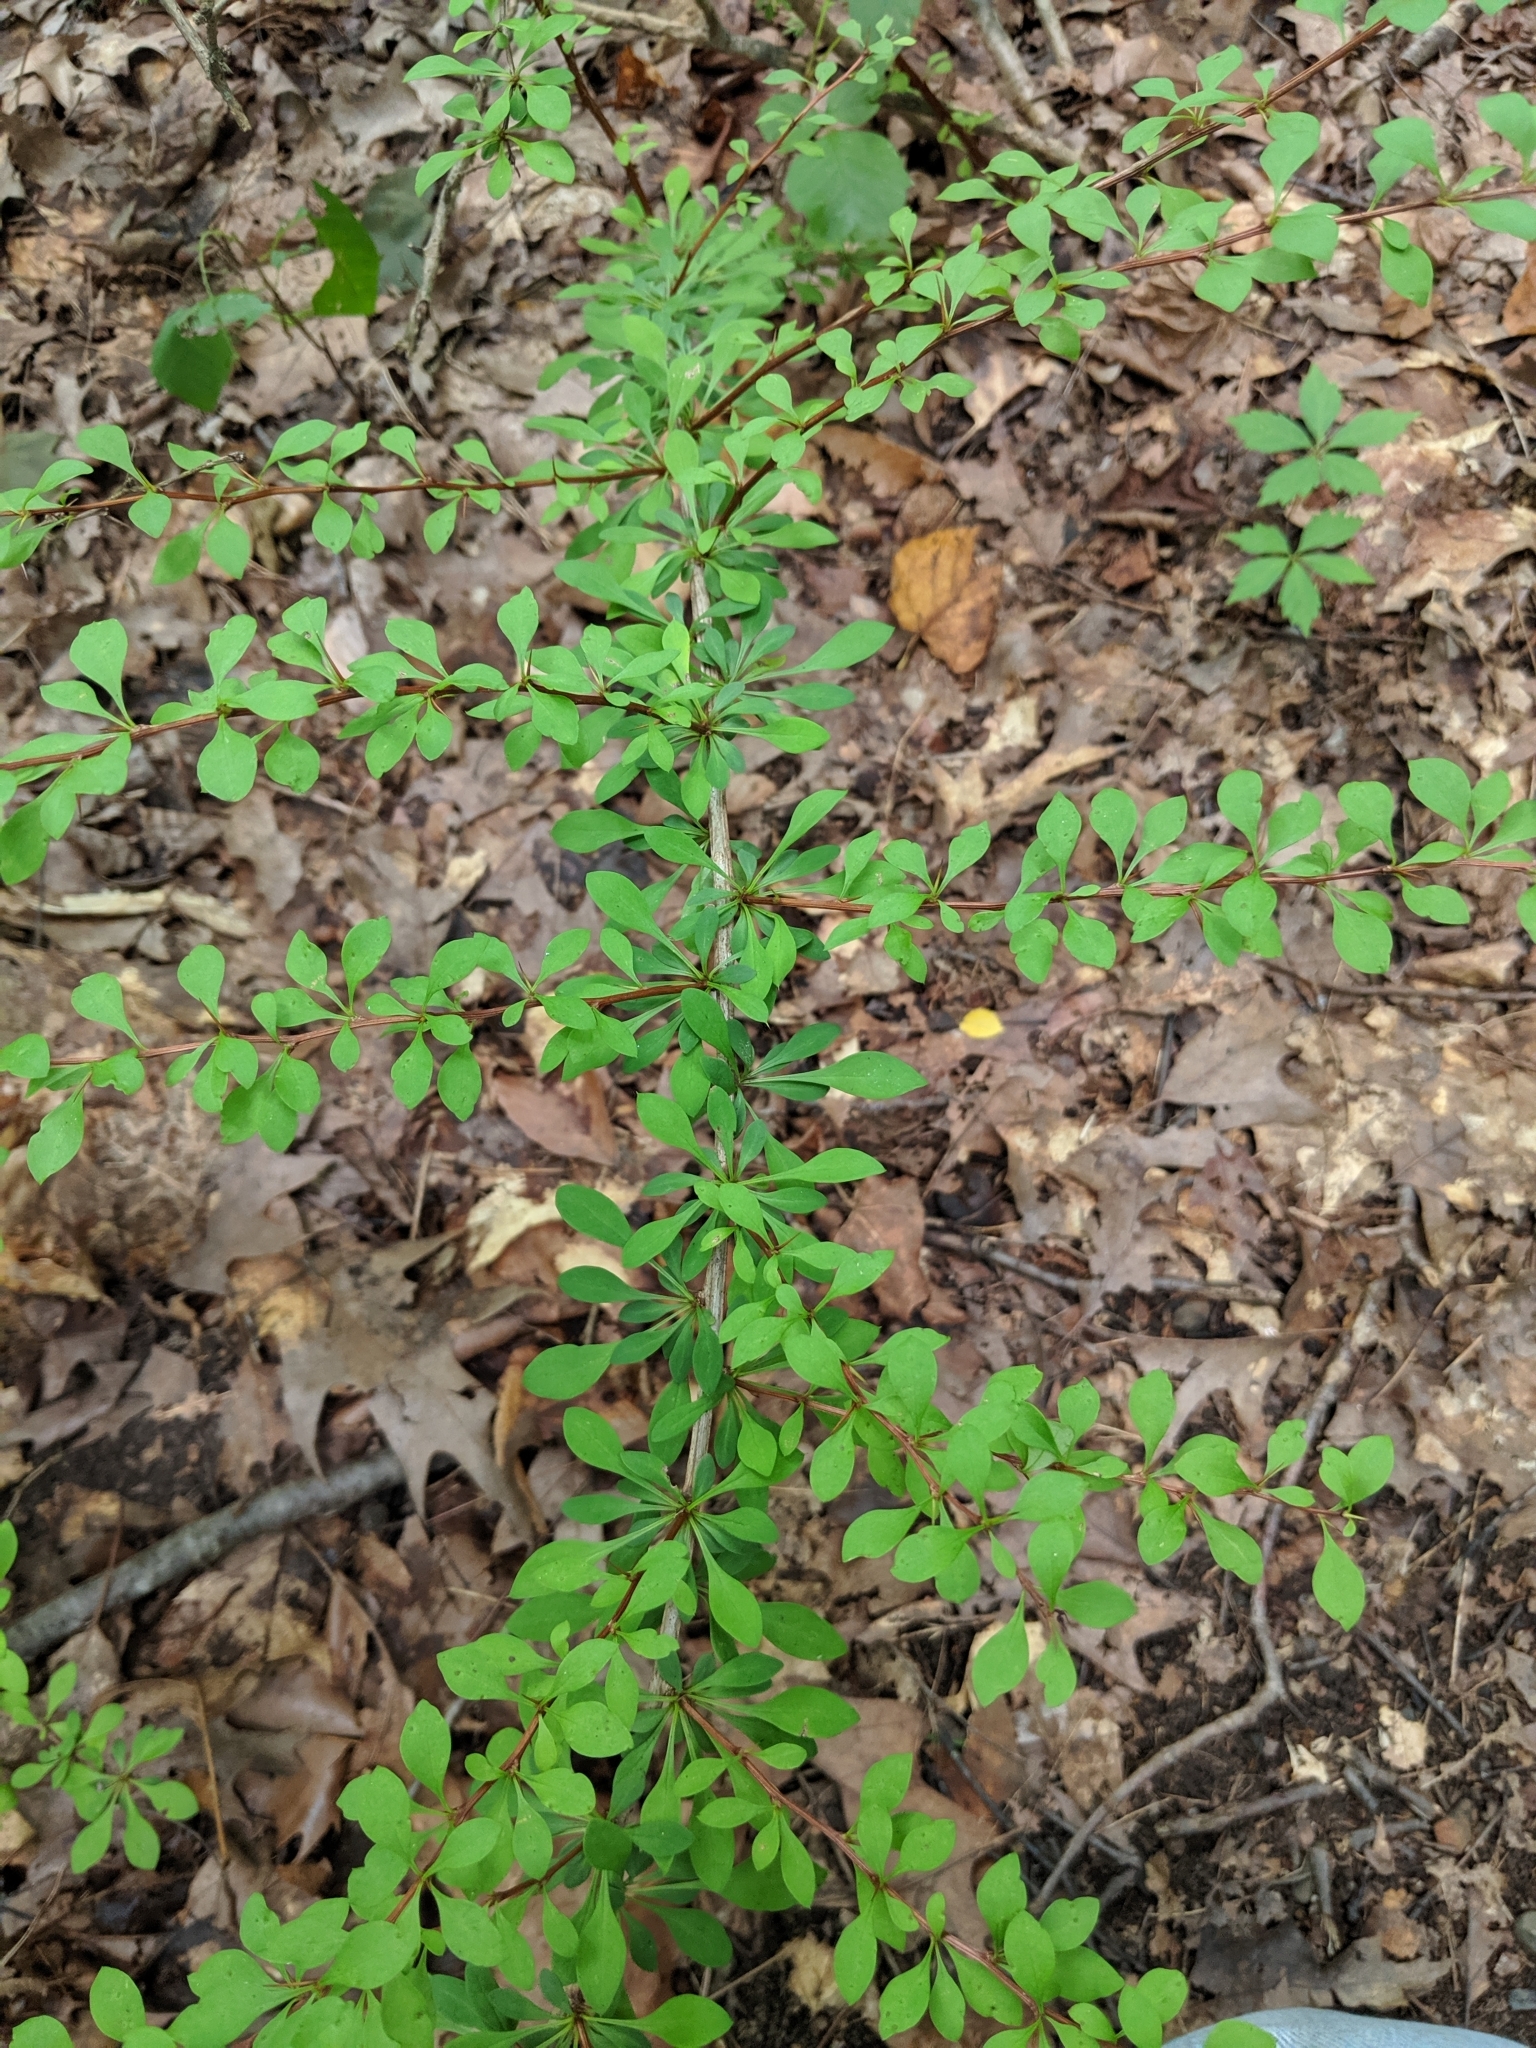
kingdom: Plantae
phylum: Tracheophyta
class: Magnoliopsida
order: Ranunculales
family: Berberidaceae
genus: Berberis
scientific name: Berberis thunbergii
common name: Japanese barberry
